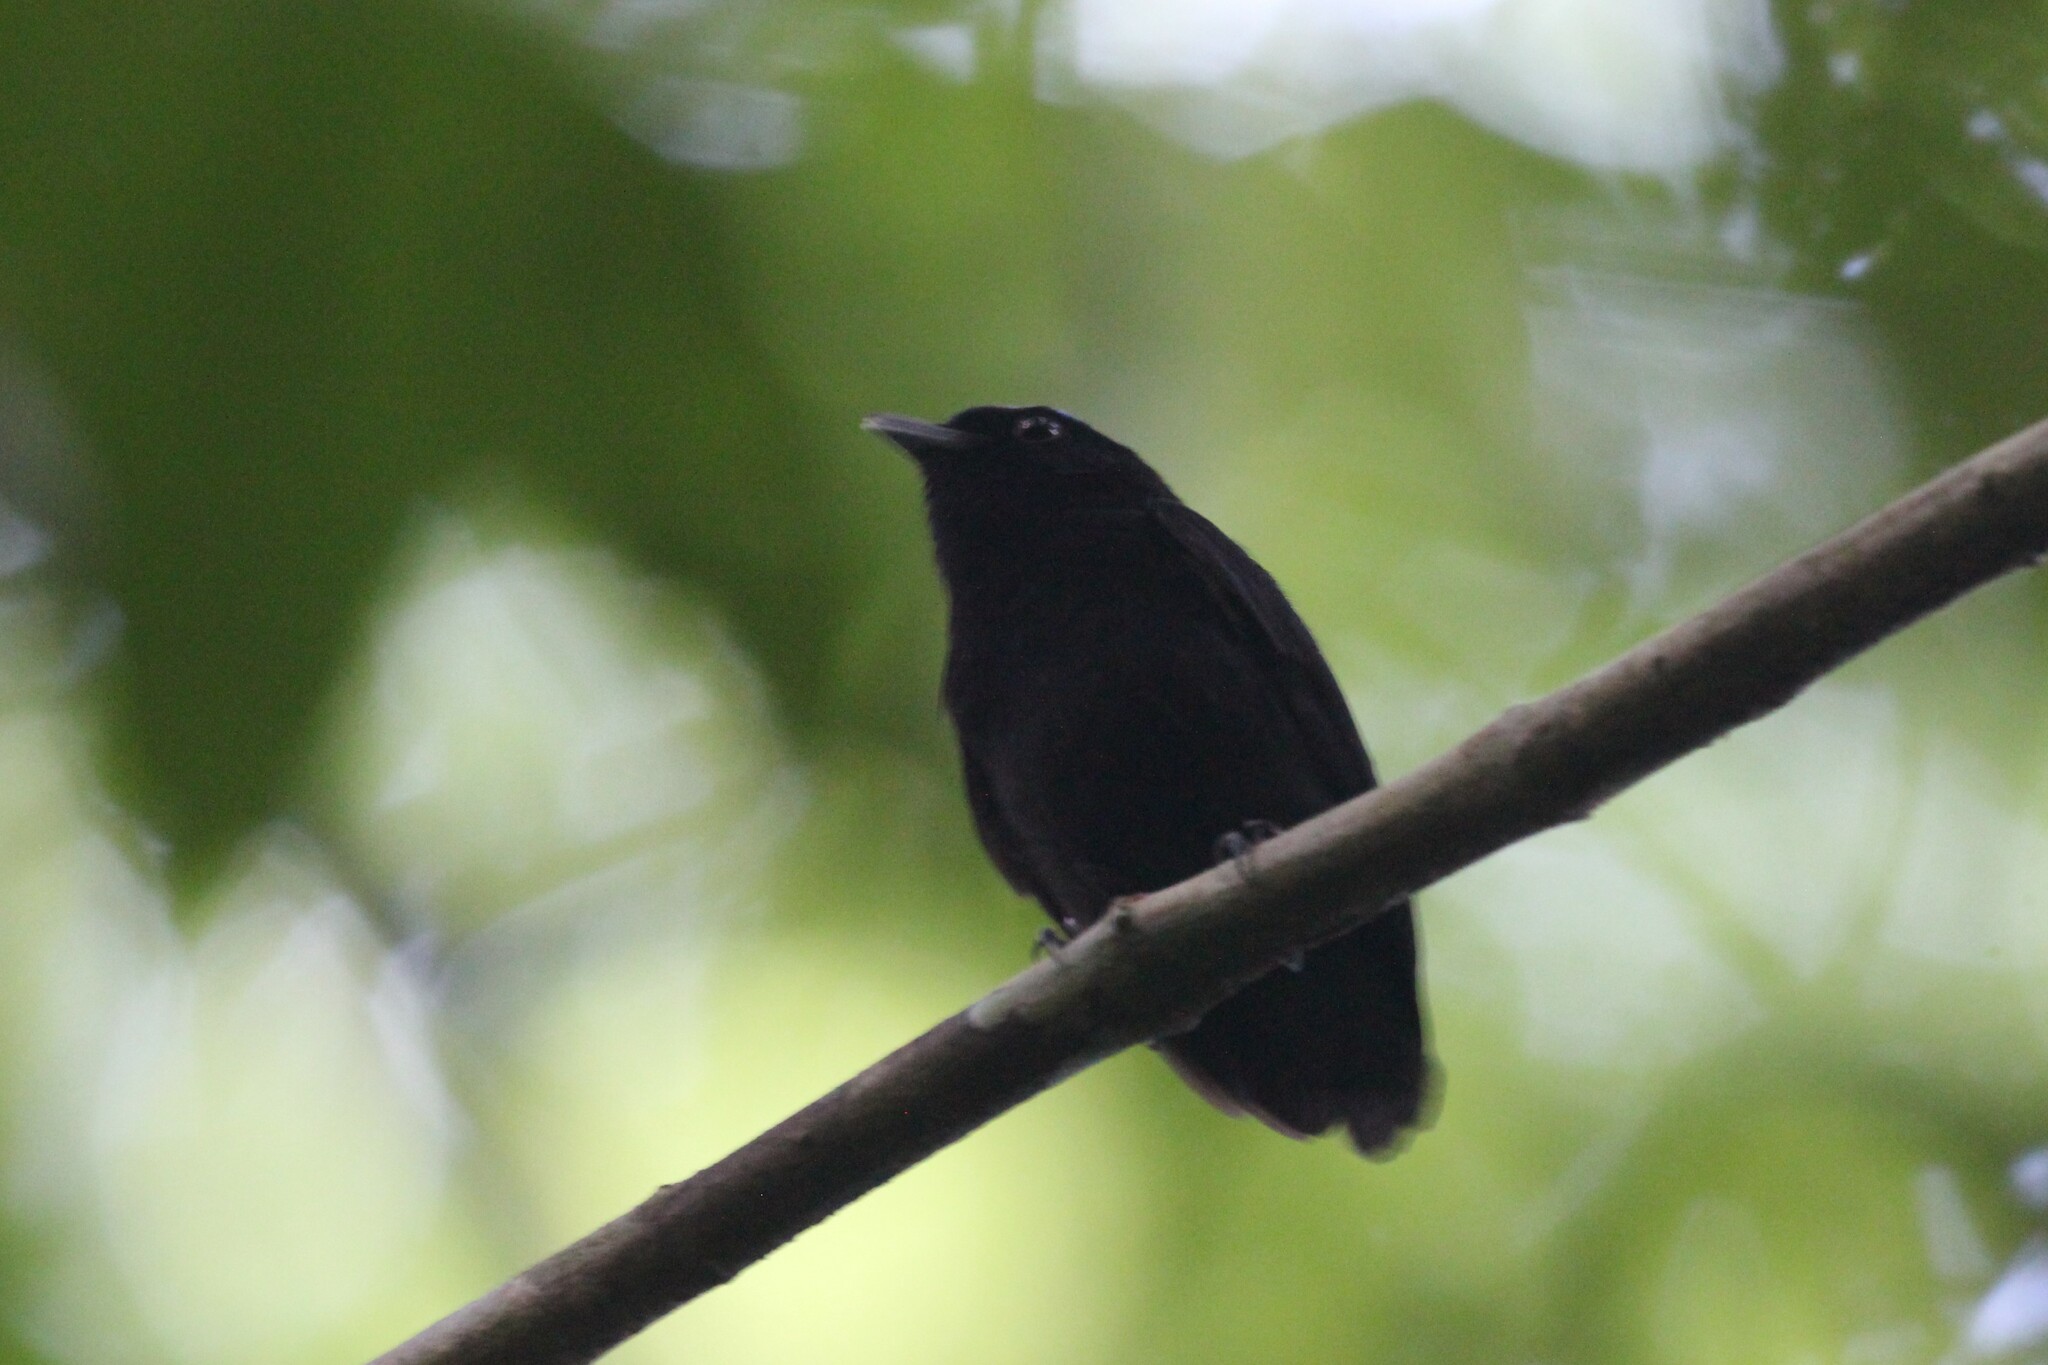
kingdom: Animalia
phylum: Chordata
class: Aves
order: Passeriformes
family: Pipridae
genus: Lepidothrix
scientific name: Lepidothrix coronata
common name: Blue-crowned manakin
